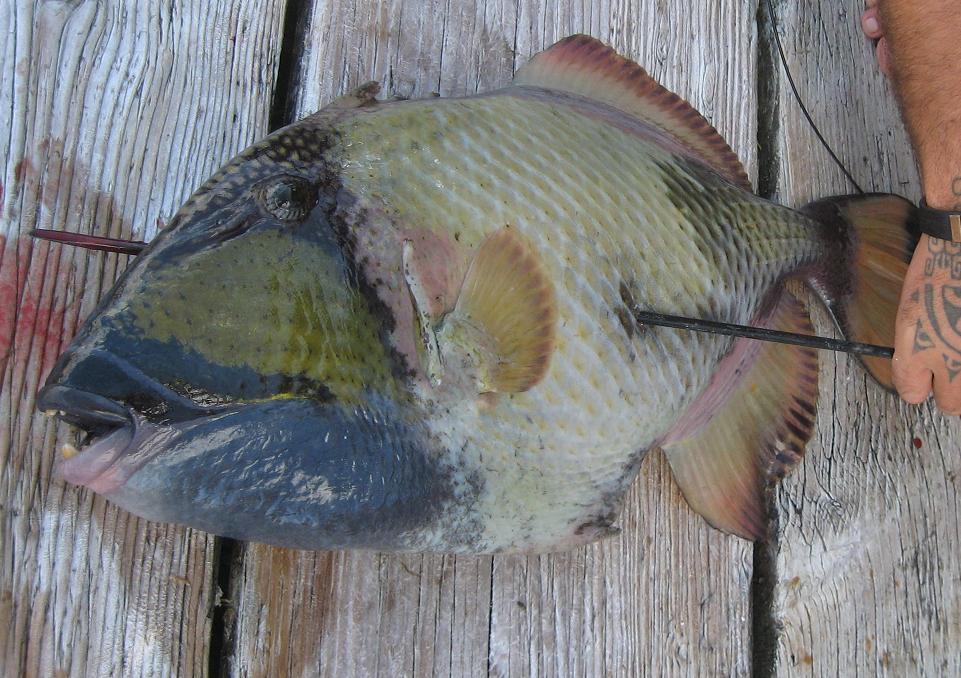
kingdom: Animalia
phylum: Chordata
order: Tetraodontiformes
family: Balistidae
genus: Balistoides
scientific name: Balistoides viridescens
